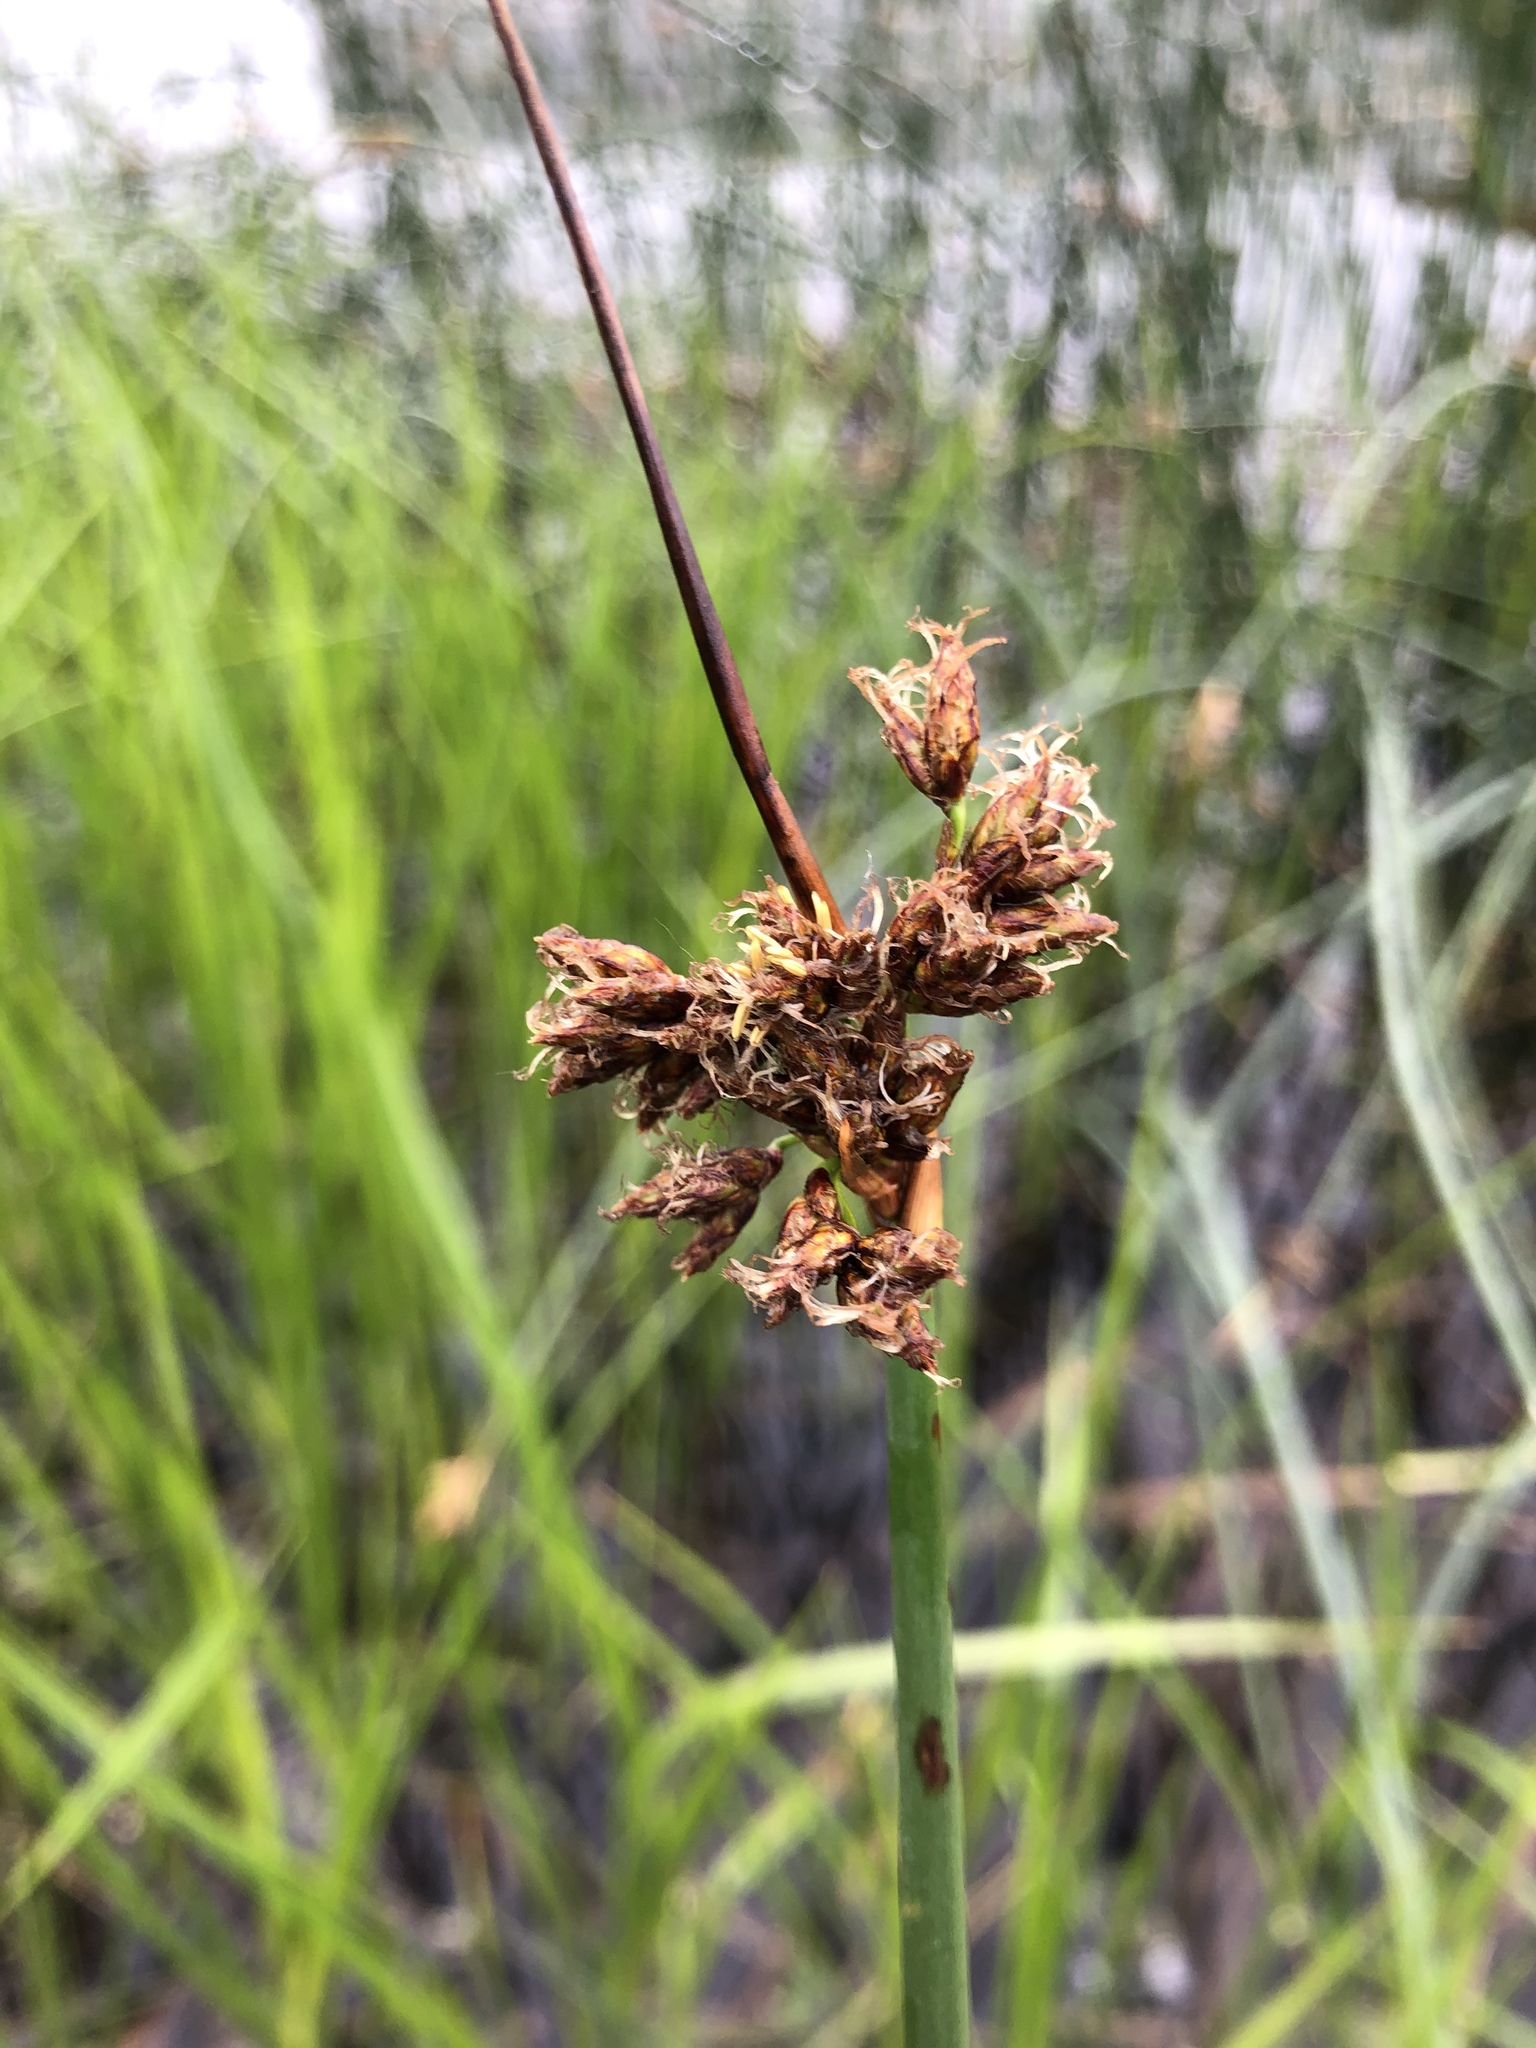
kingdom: Plantae
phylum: Tracheophyta
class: Liliopsida
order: Poales
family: Cyperaceae
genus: Schoenoplectus
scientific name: Schoenoplectus lacustris
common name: Common club-rush
